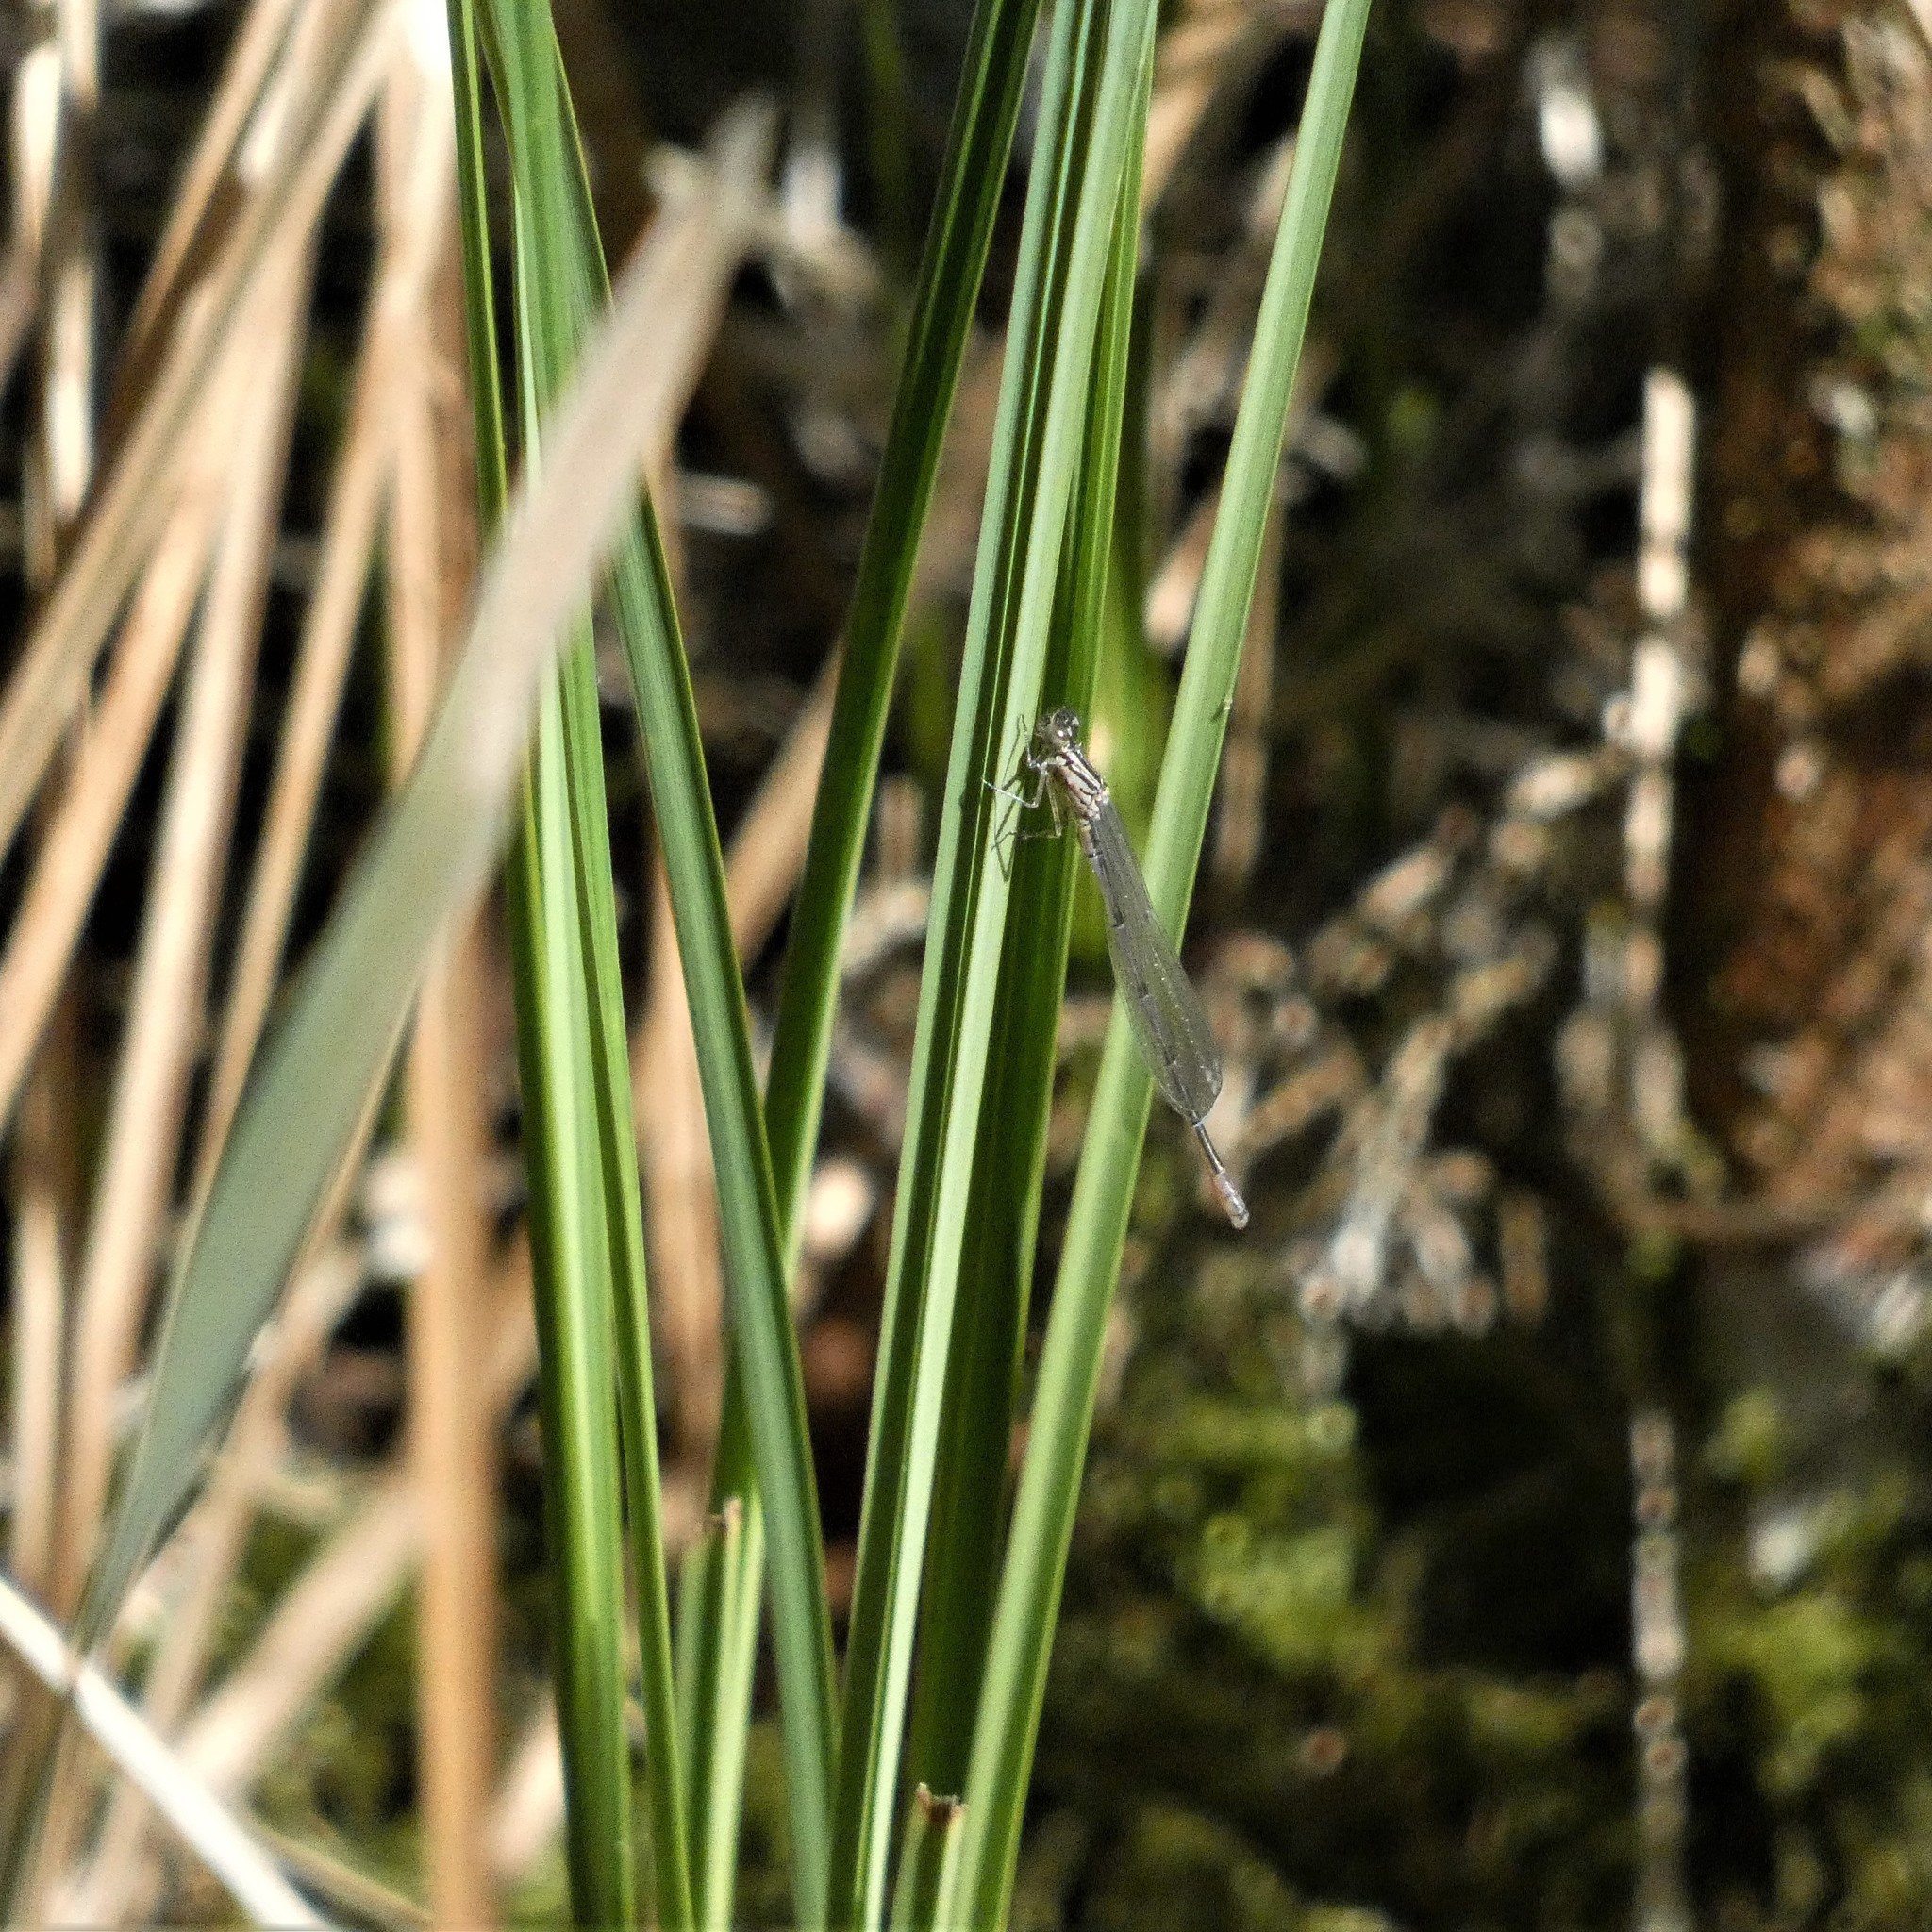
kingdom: Animalia
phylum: Arthropoda
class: Insecta
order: Odonata
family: Coenagrionidae
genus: Coenagrion
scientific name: Coenagrion puella
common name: Azure damselfly
